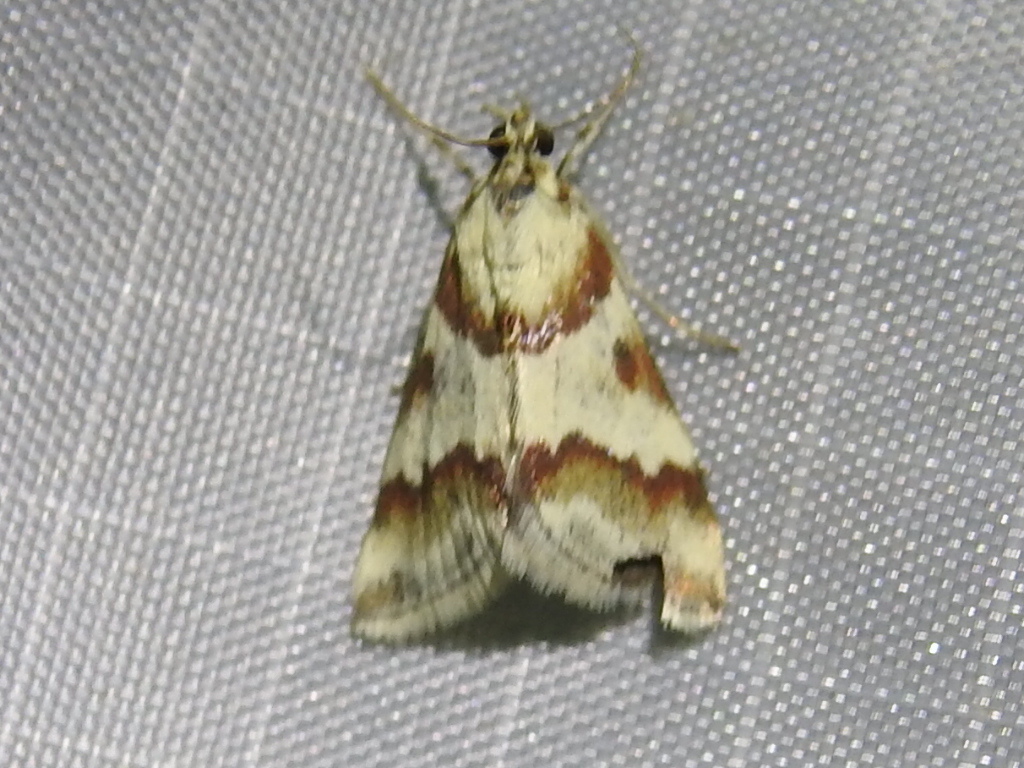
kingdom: Animalia
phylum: Arthropoda
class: Insecta
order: Lepidoptera
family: Crambidae
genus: Noctuelia
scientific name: Noctuelia Mimoschinia rufofascialis
